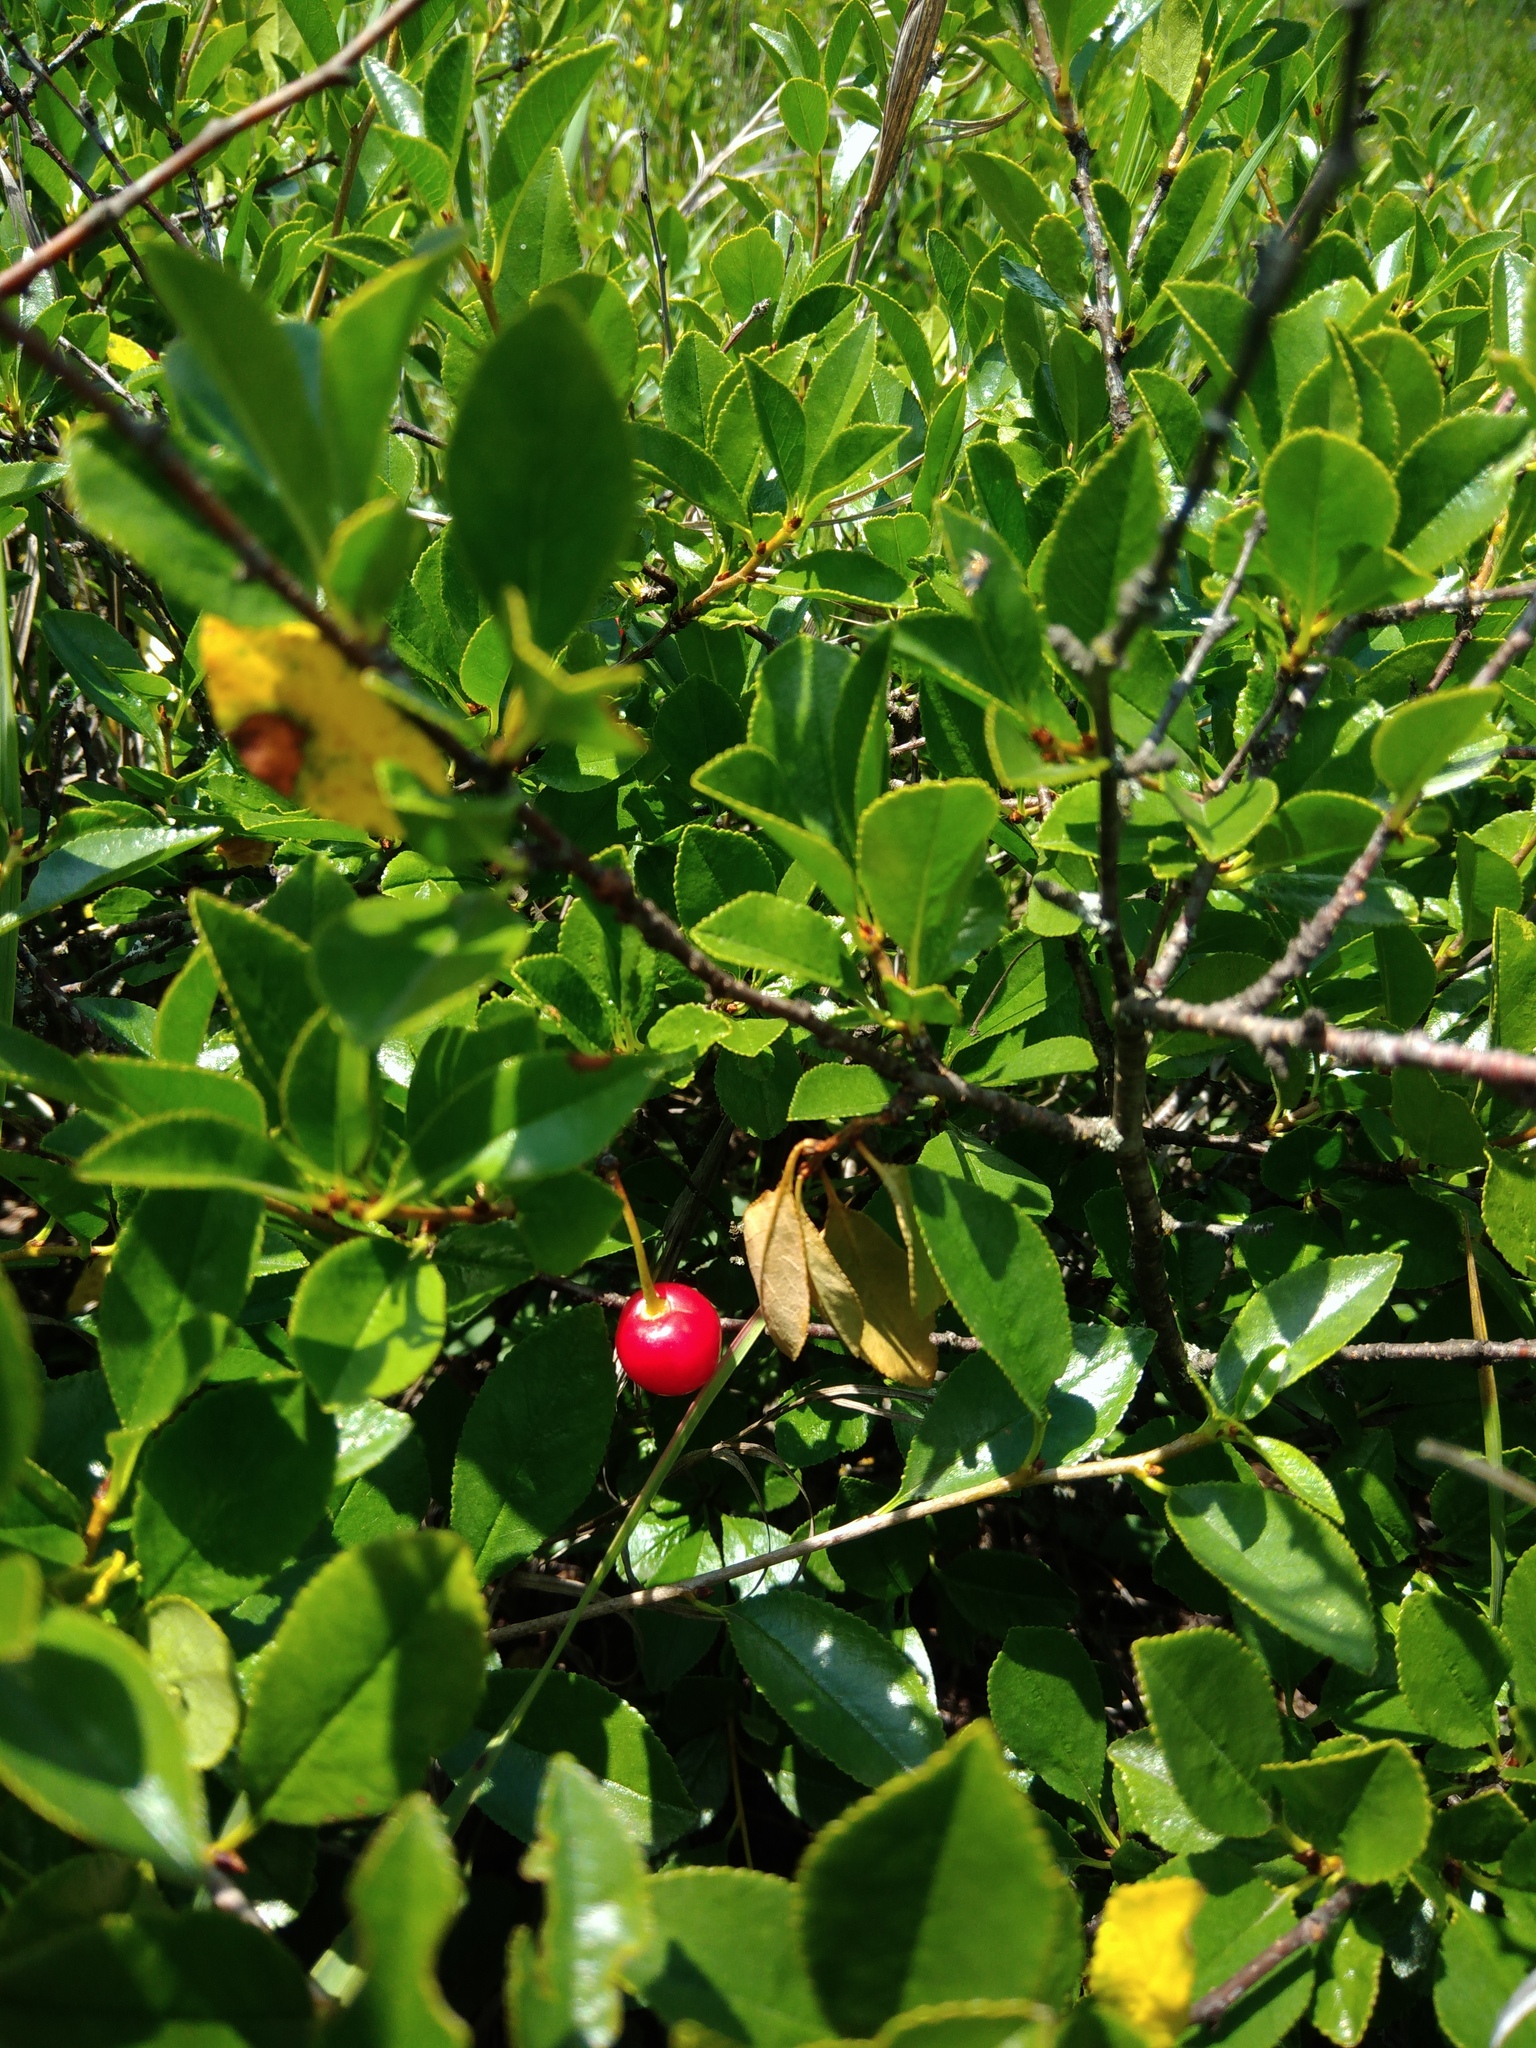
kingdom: Plantae
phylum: Tracheophyta
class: Magnoliopsida
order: Rosales
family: Rosaceae
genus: Prunus
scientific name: Prunus Cerasus klokovii
